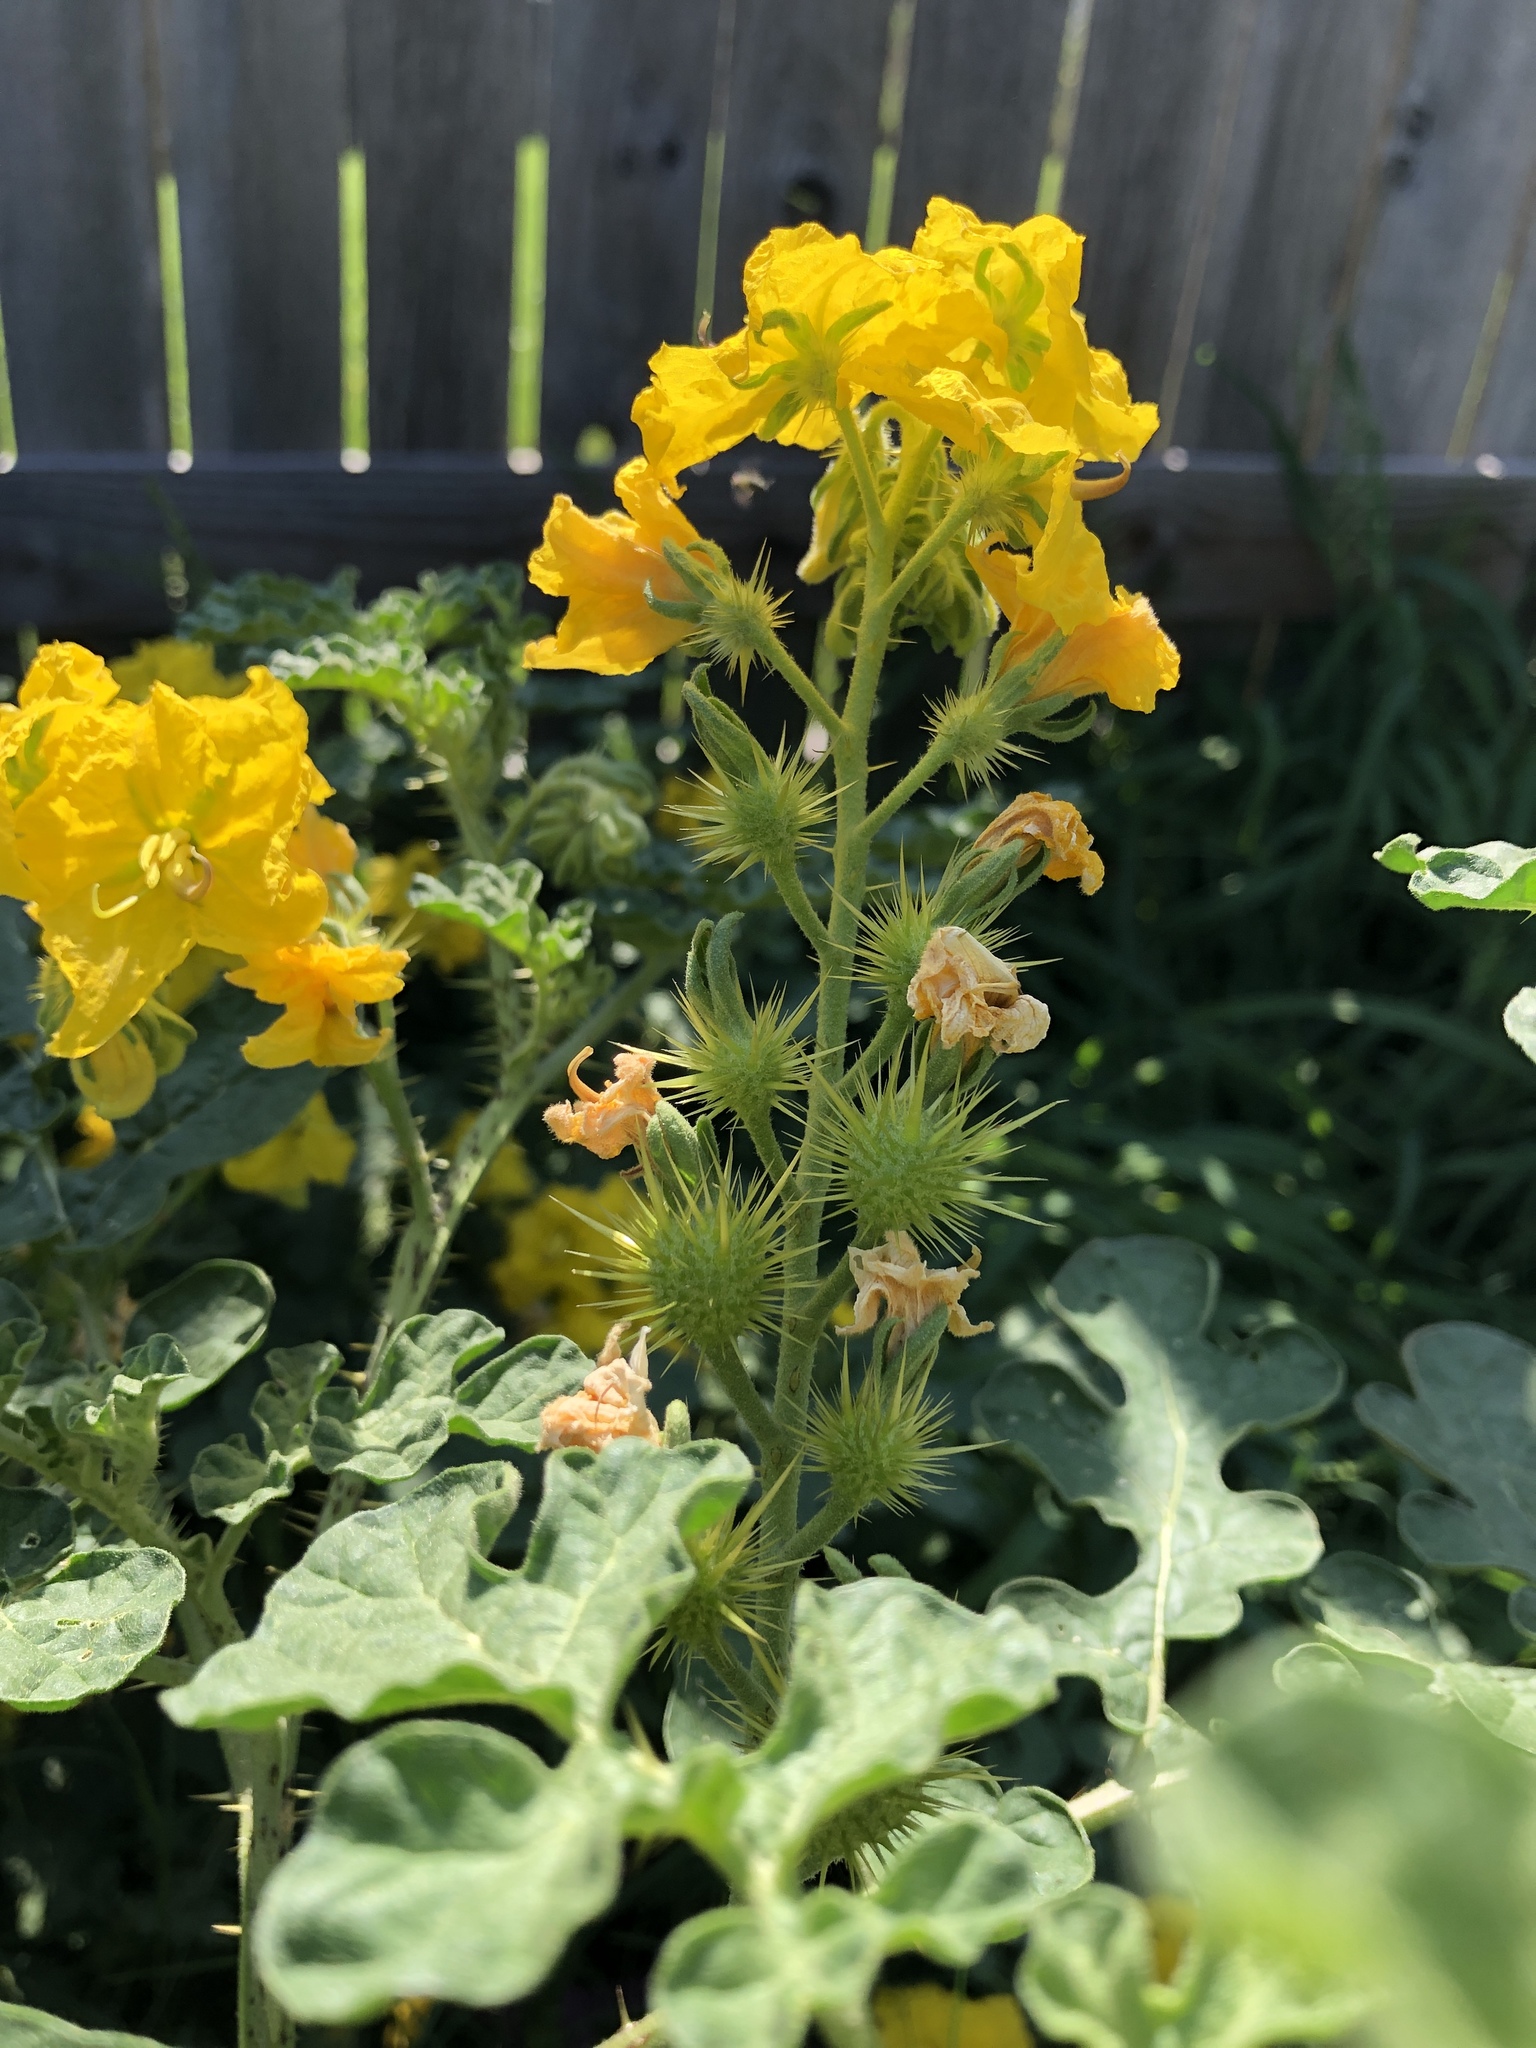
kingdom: Plantae
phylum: Tracheophyta
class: Magnoliopsida
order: Solanales
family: Solanaceae
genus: Solanum
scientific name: Solanum angustifolium
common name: Buffalobur nightshade
